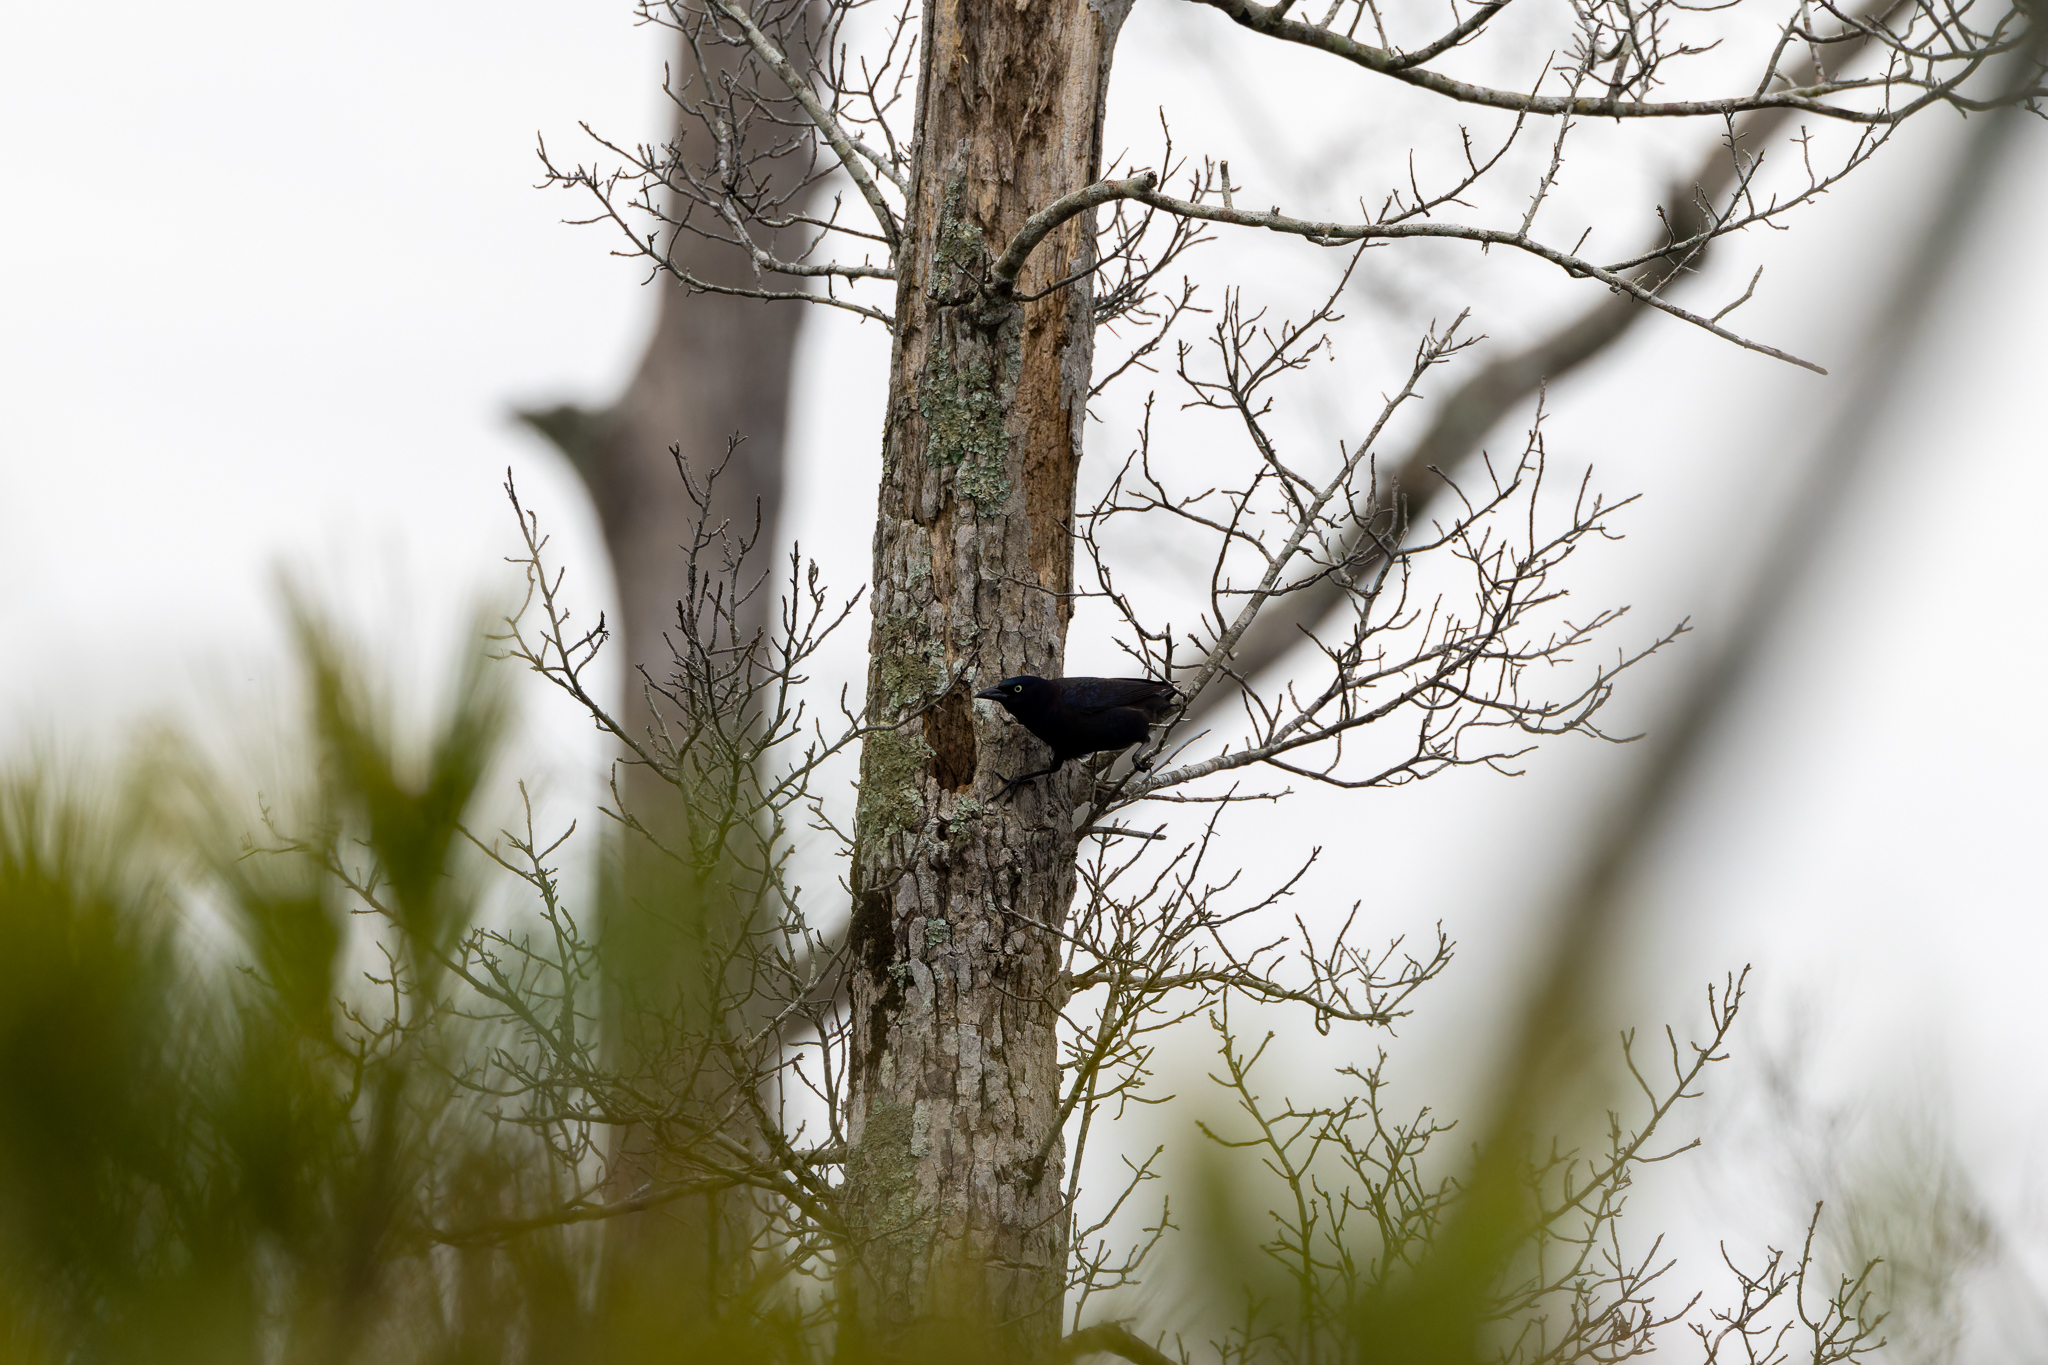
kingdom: Animalia
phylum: Chordata
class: Aves
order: Passeriformes
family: Icteridae
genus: Quiscalus
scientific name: Quiscalus quiscula
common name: Common grackle
